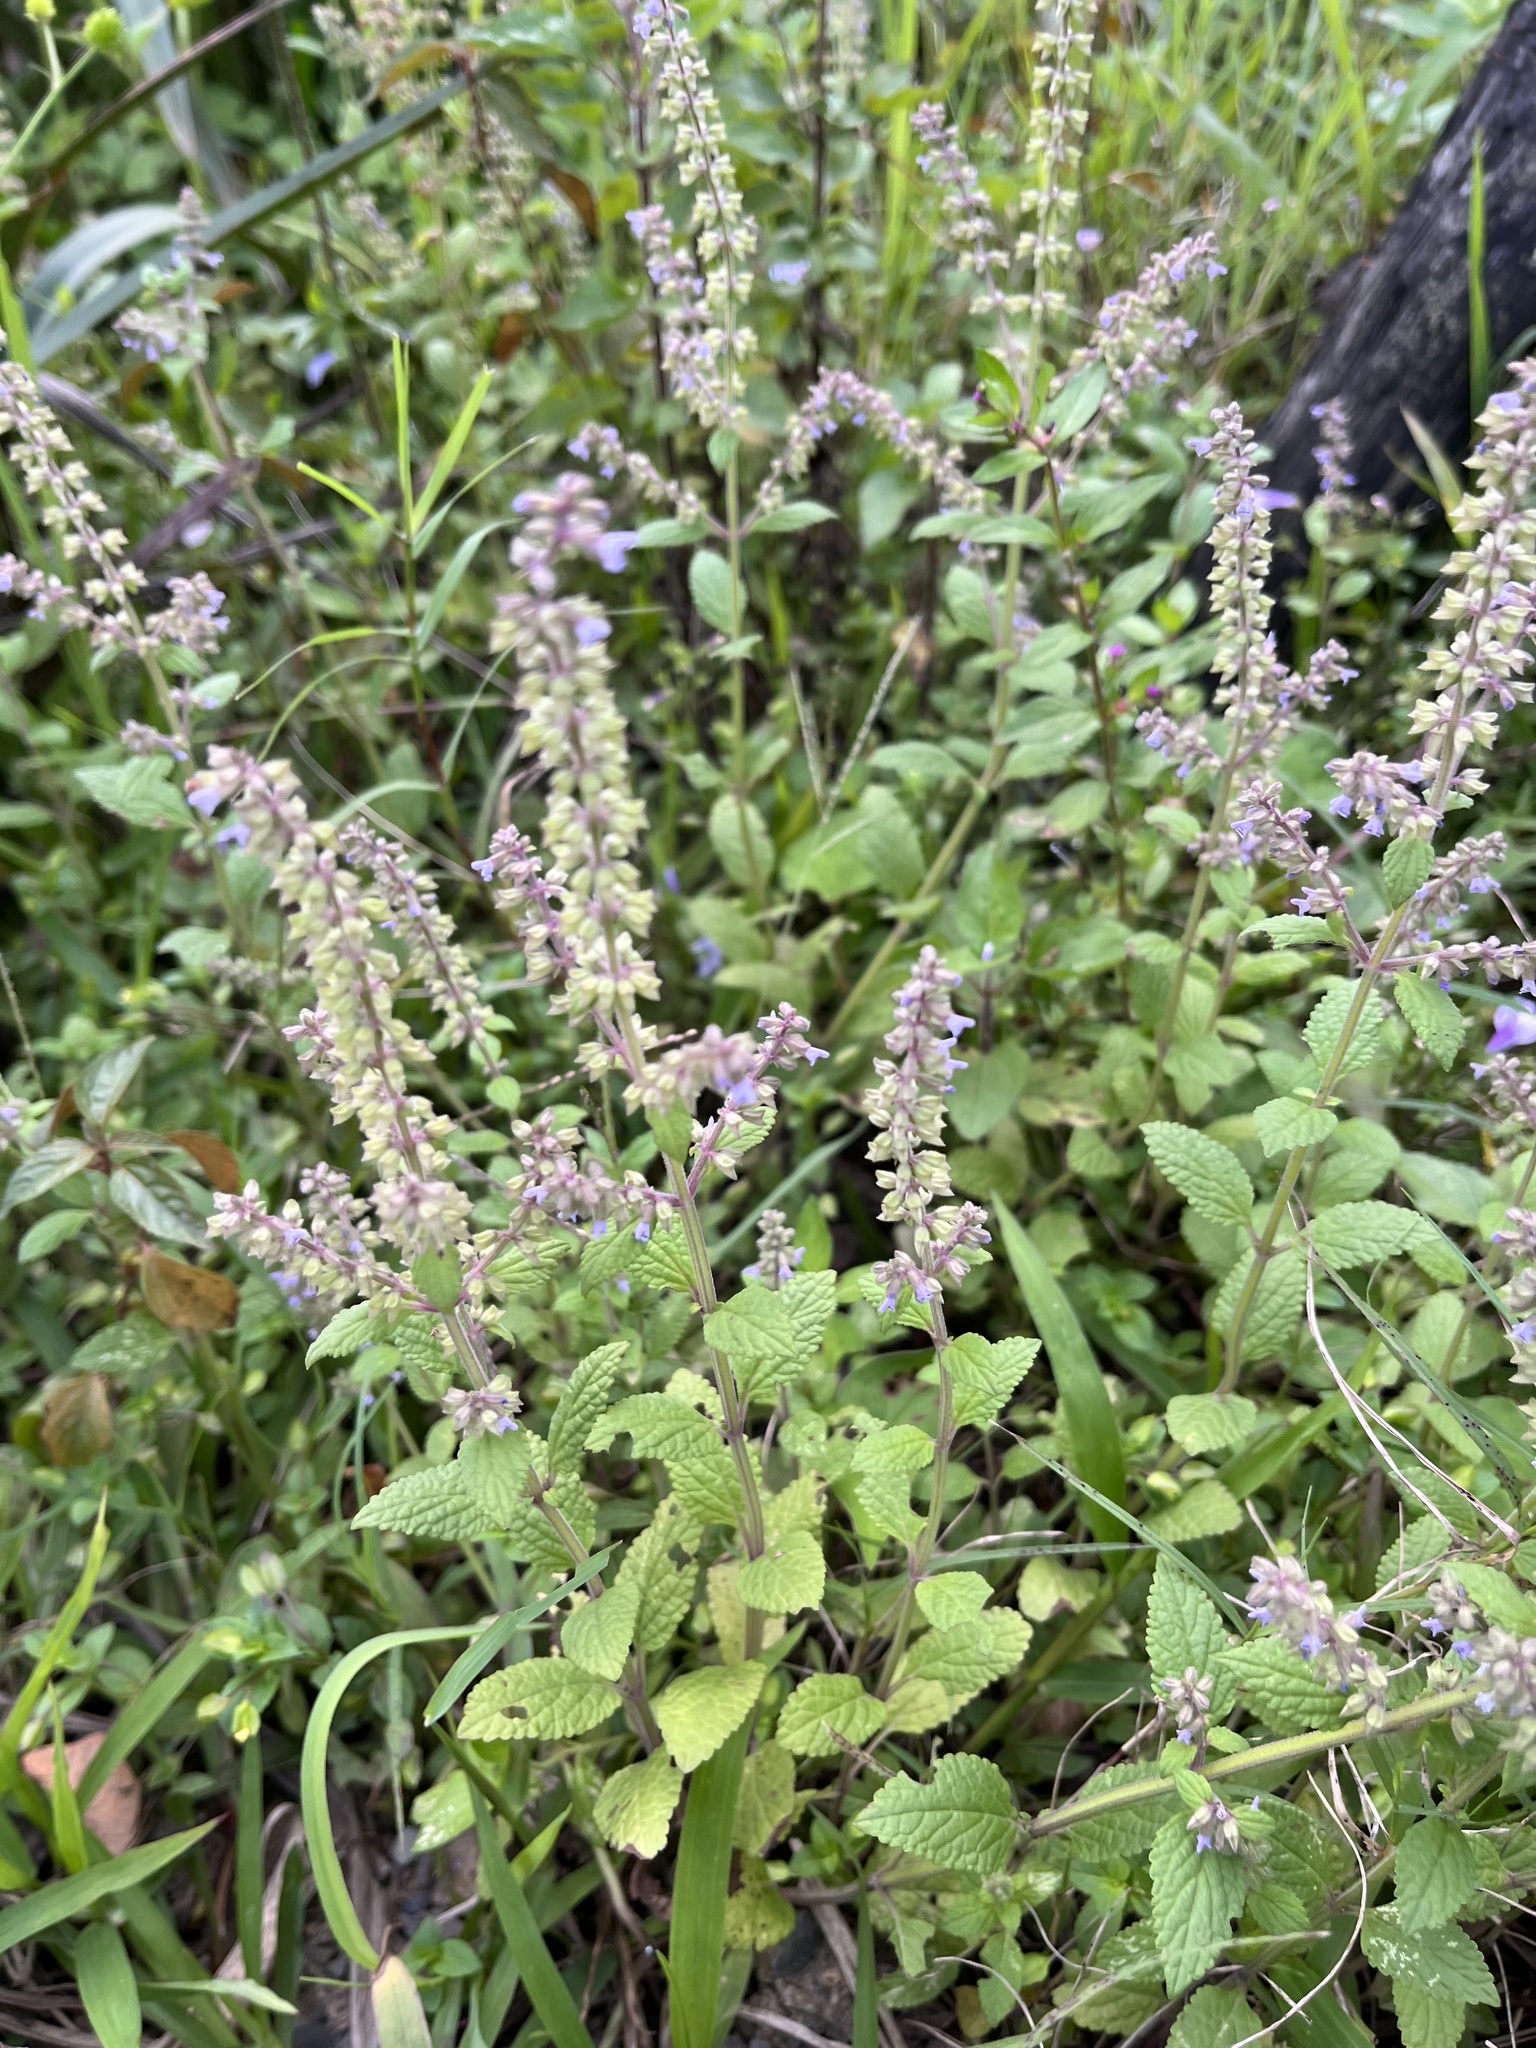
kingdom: Plantae
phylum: Tracheophyta
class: Magnoliopsida
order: Lamiales
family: Lamiaceae
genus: Salvia
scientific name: Salvia plebeia
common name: Australian sage
